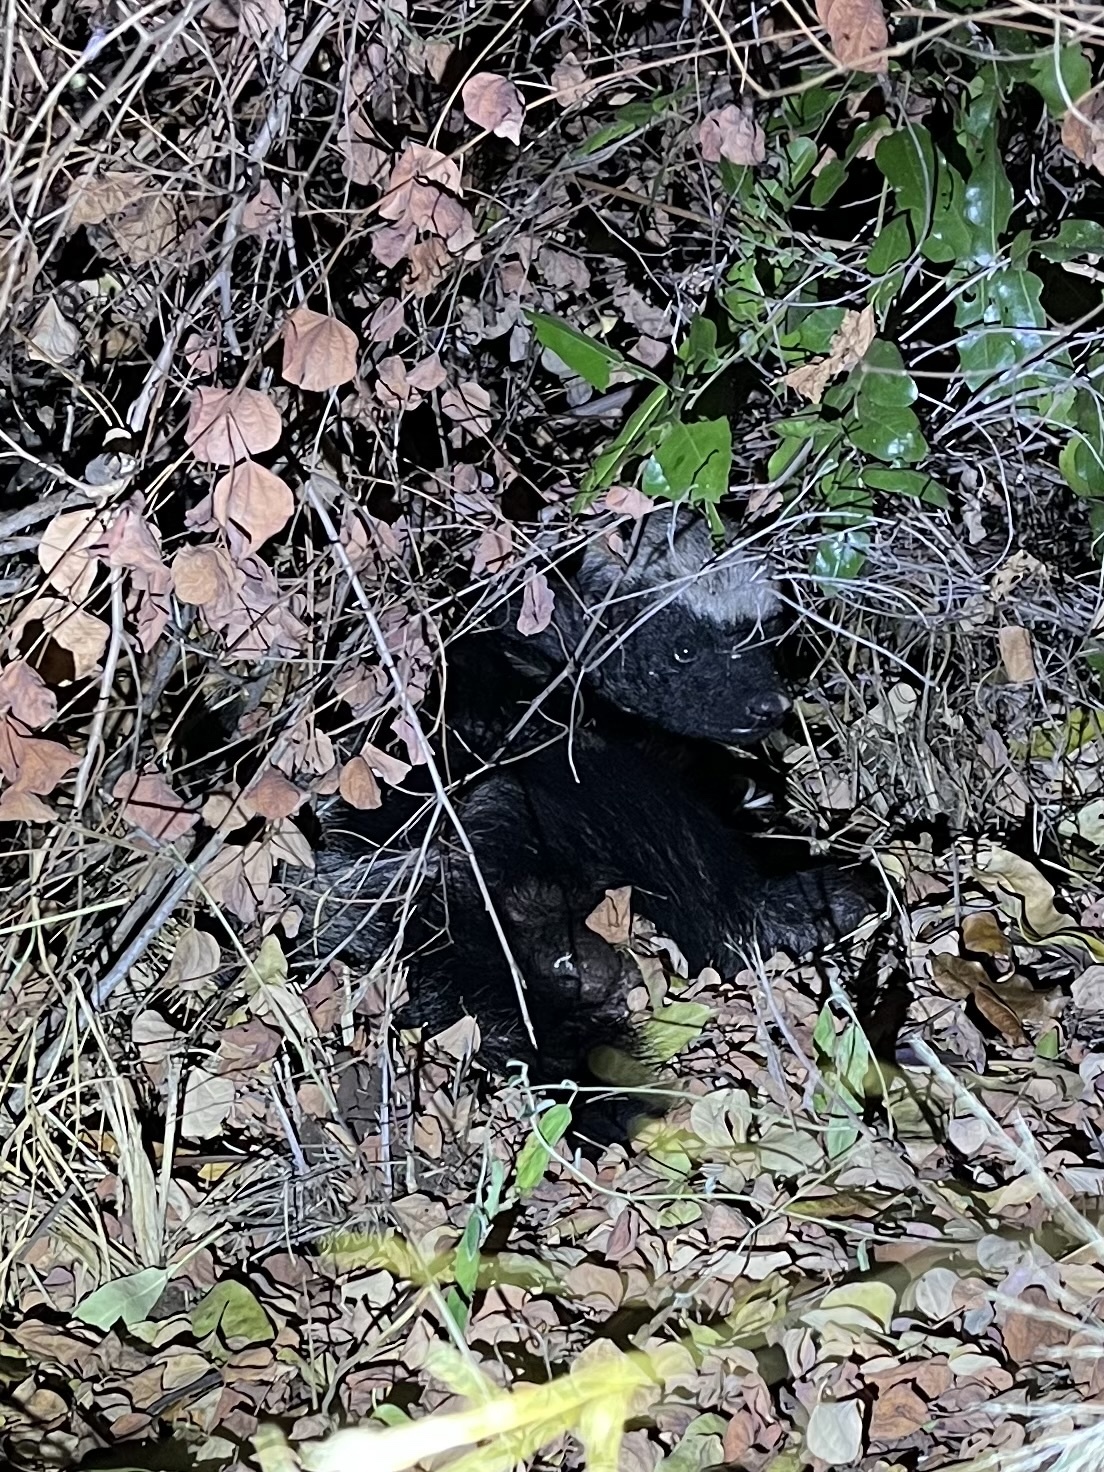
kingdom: Animalia
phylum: Chordata
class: Mammalia
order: Carnivora
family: Mustelidae
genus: Mellivora
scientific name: Mellivora capensis
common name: Honey badger
